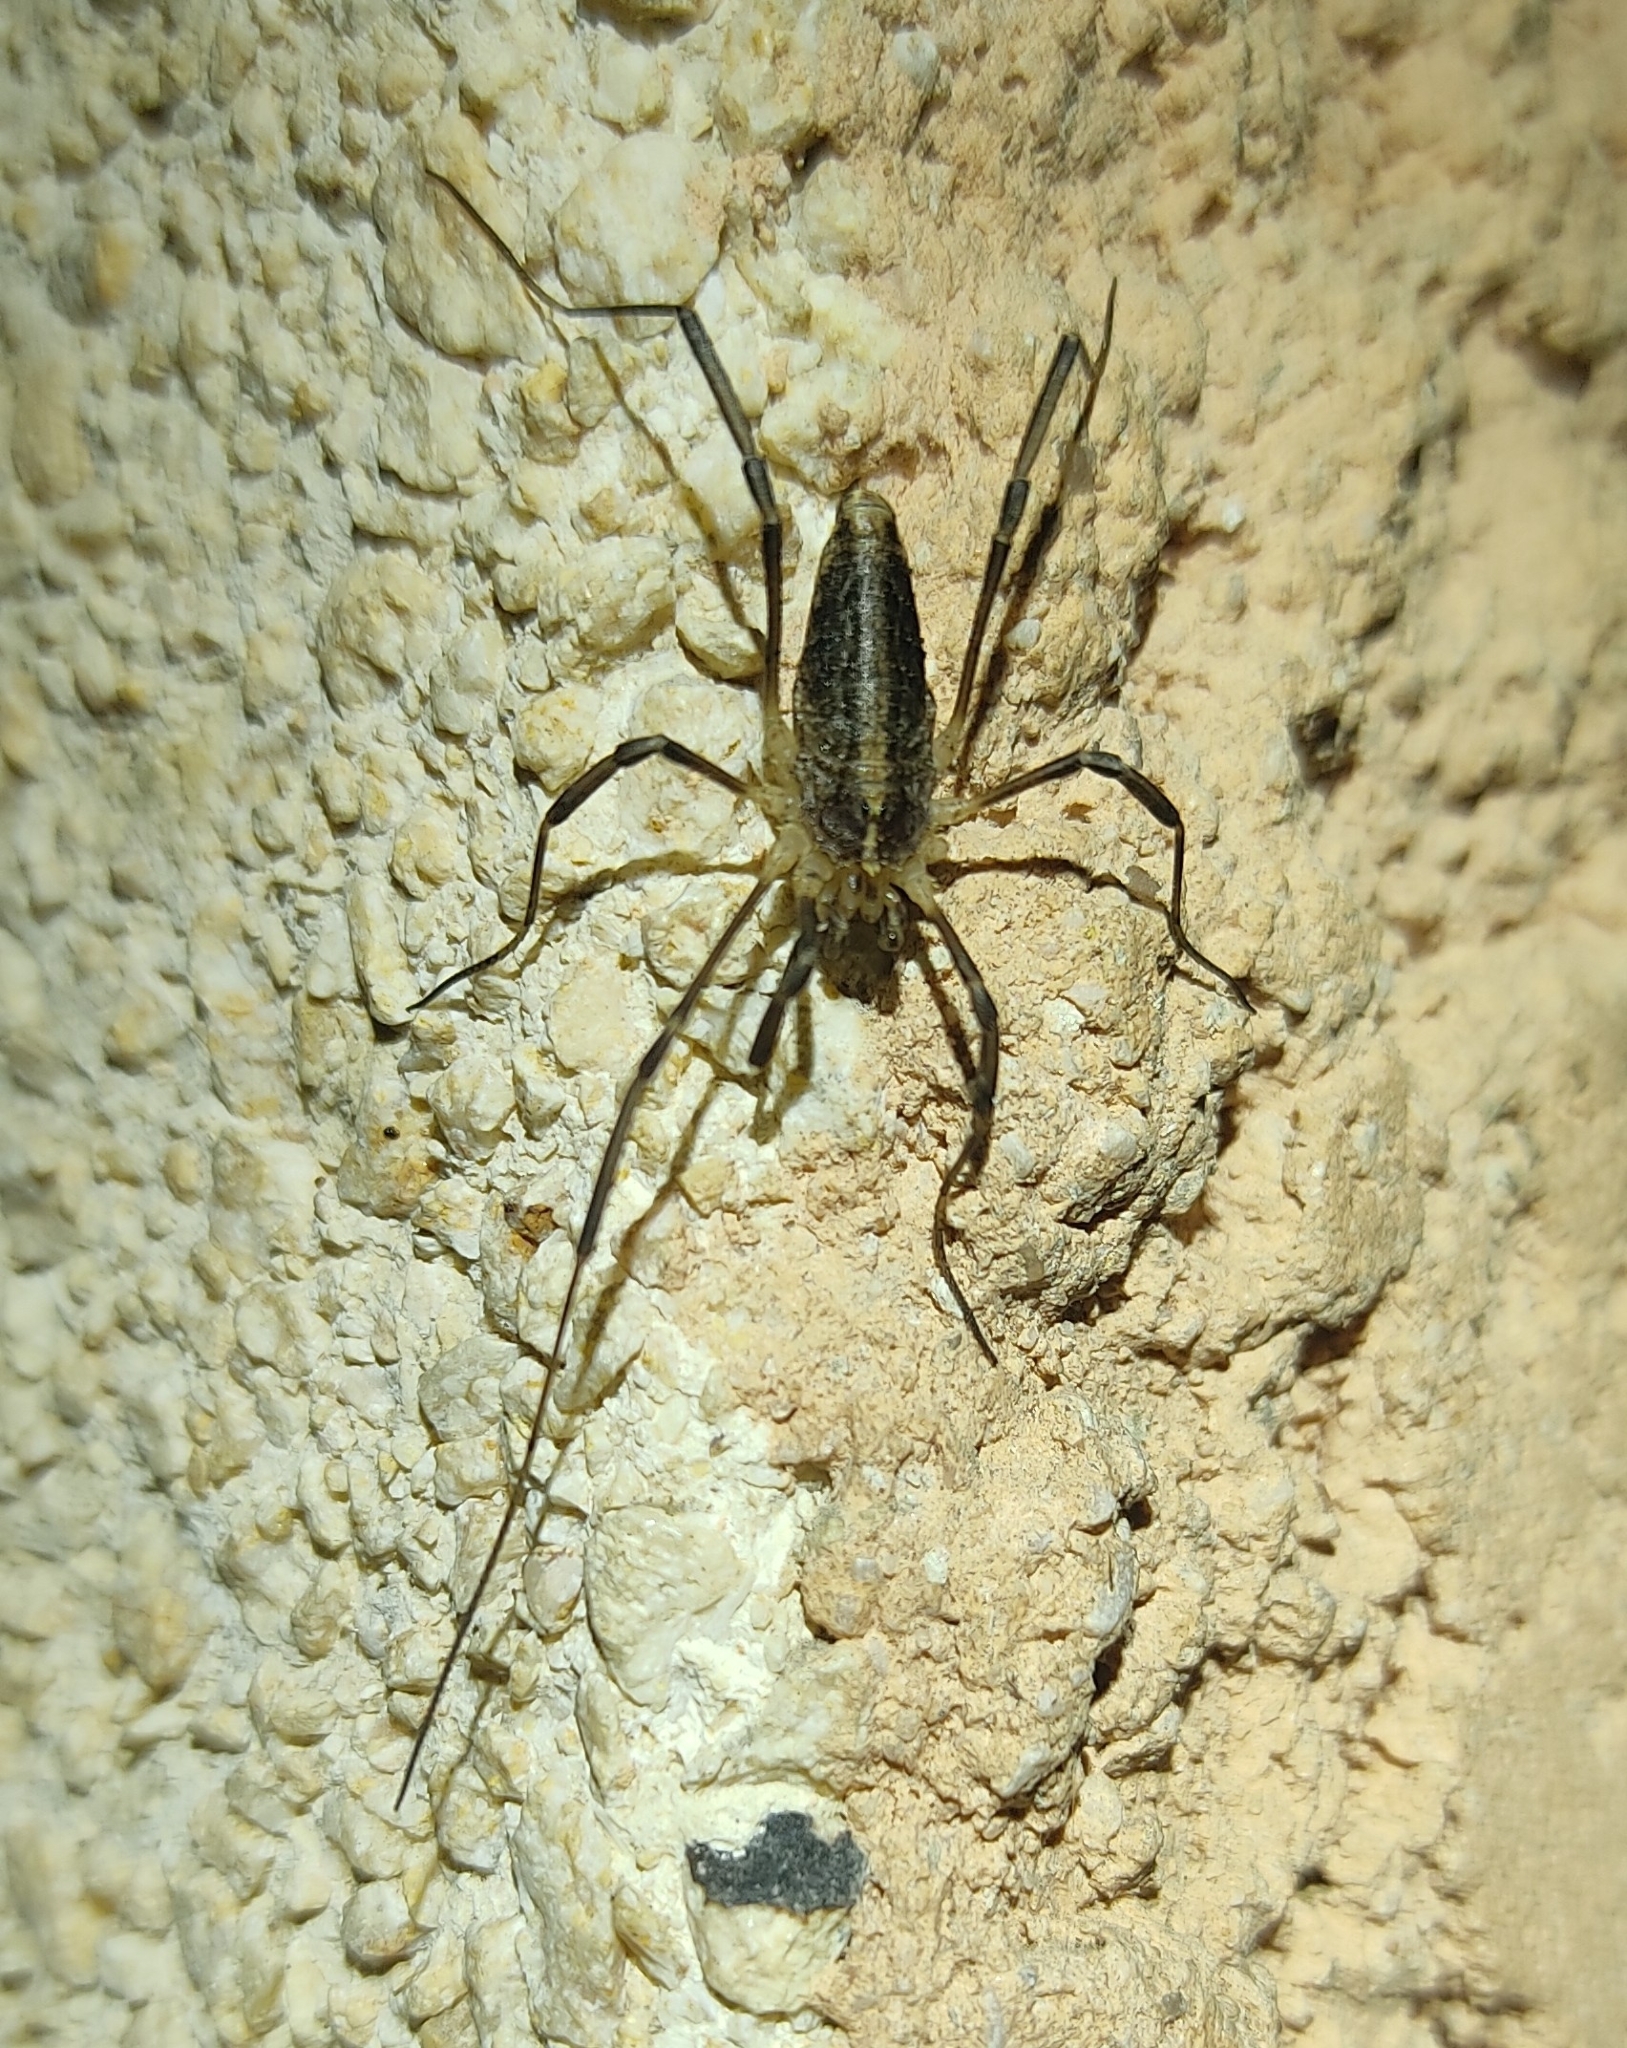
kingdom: Animalia
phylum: Arthropoda
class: Arachnida
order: Opiliones
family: Phalangiidae
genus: Odiellus
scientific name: Odiellus troguloides
